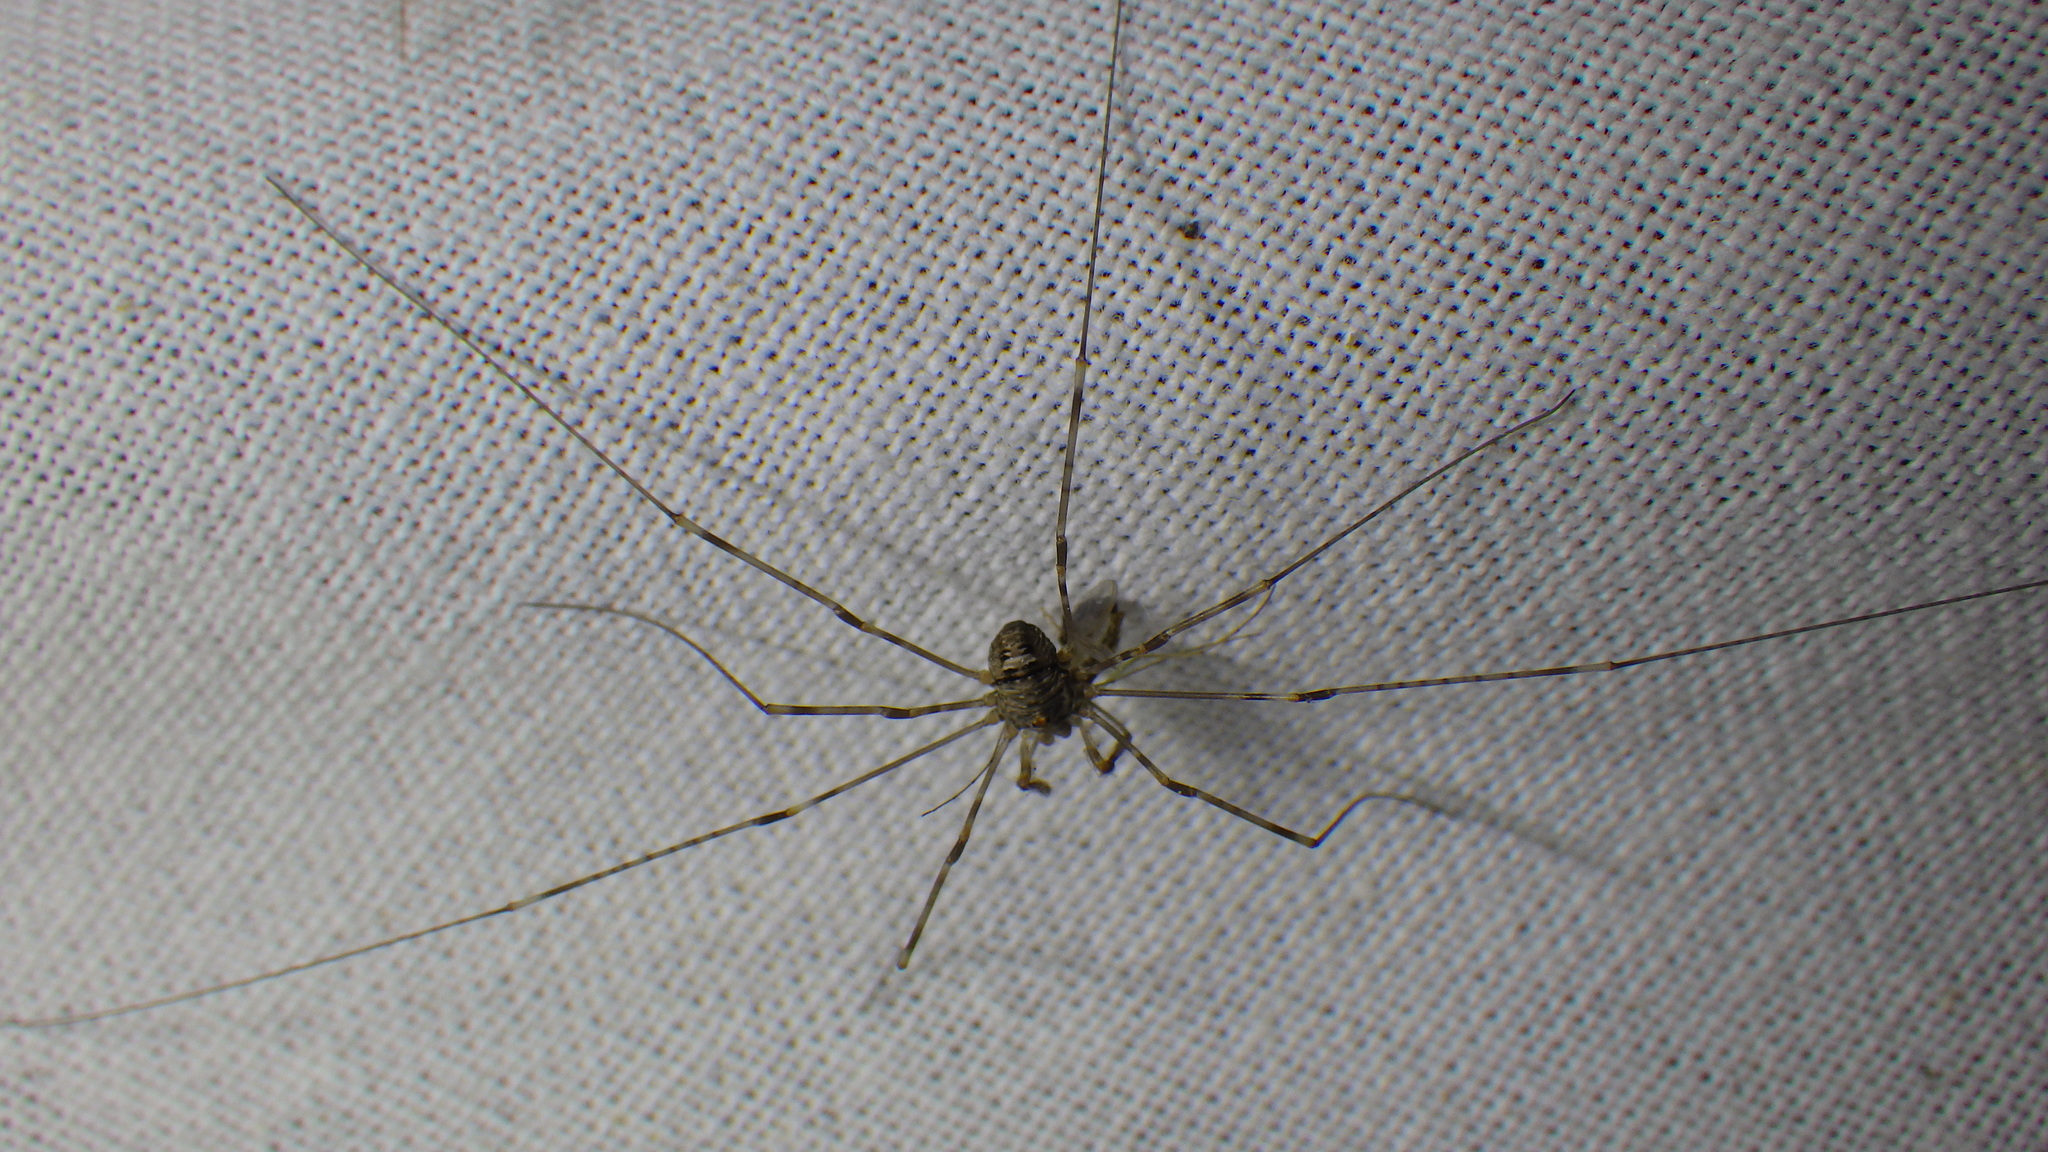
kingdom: Animalia
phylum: Arthropoda
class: Arachnida
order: Opiliones
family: Phalangiidae
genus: Dicranopalpus
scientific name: Dicranopalpus ramosus
